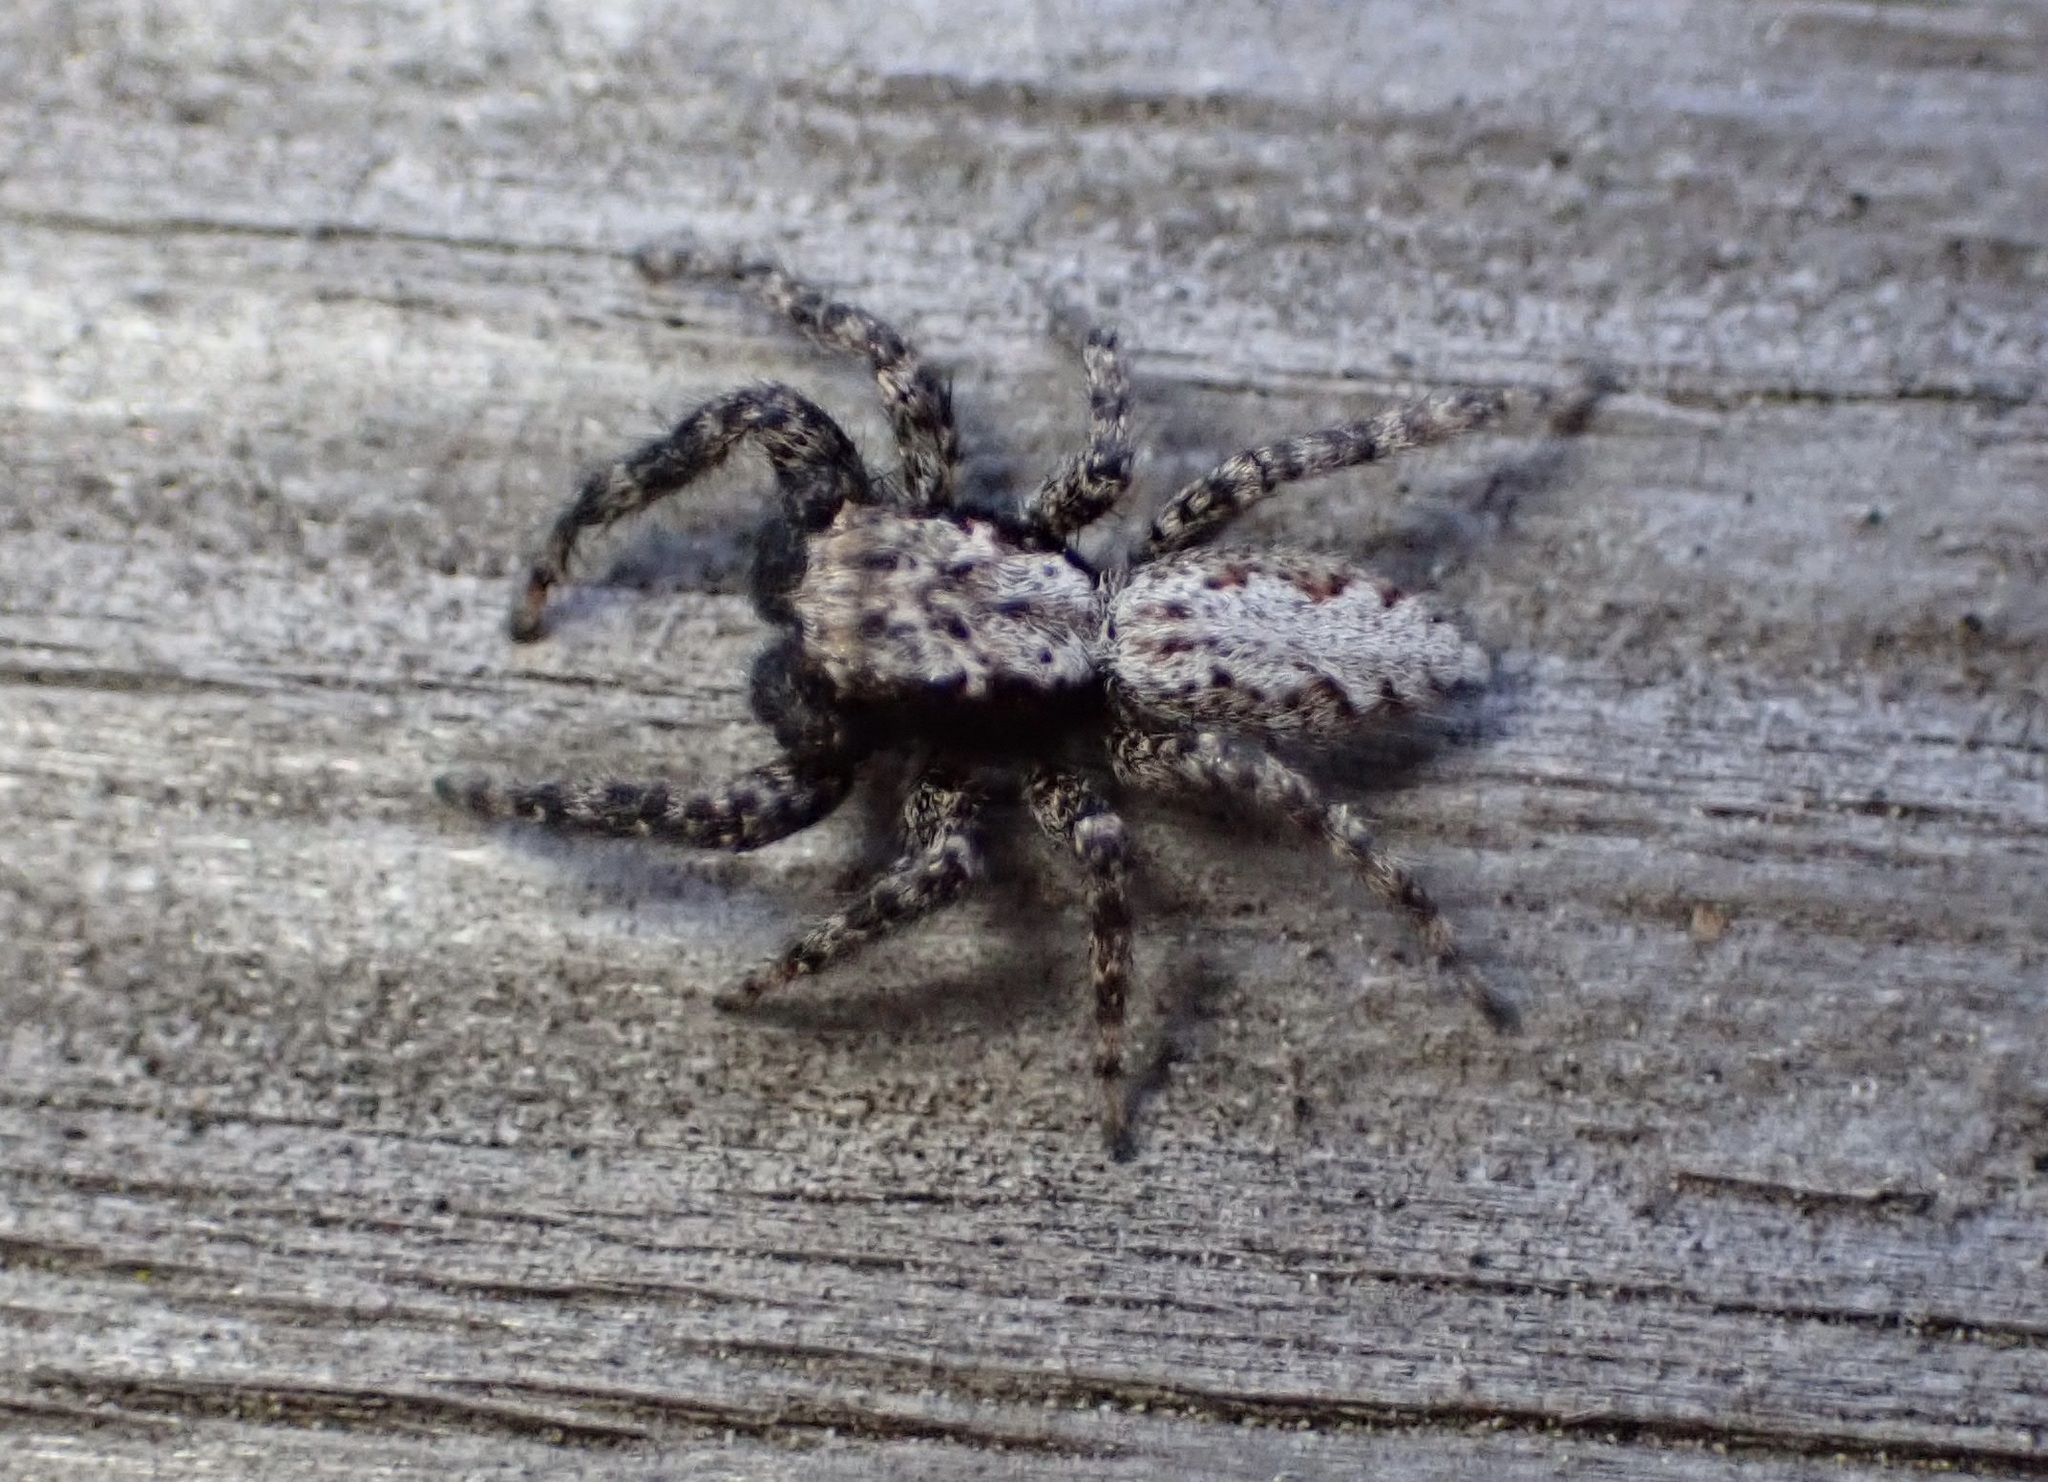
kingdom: Animalia
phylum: Arthropoda
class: Arachnida
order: Araneae
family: Salticidae
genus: Platycryptus
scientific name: Platycryptus californicus
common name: Jumping spiders
